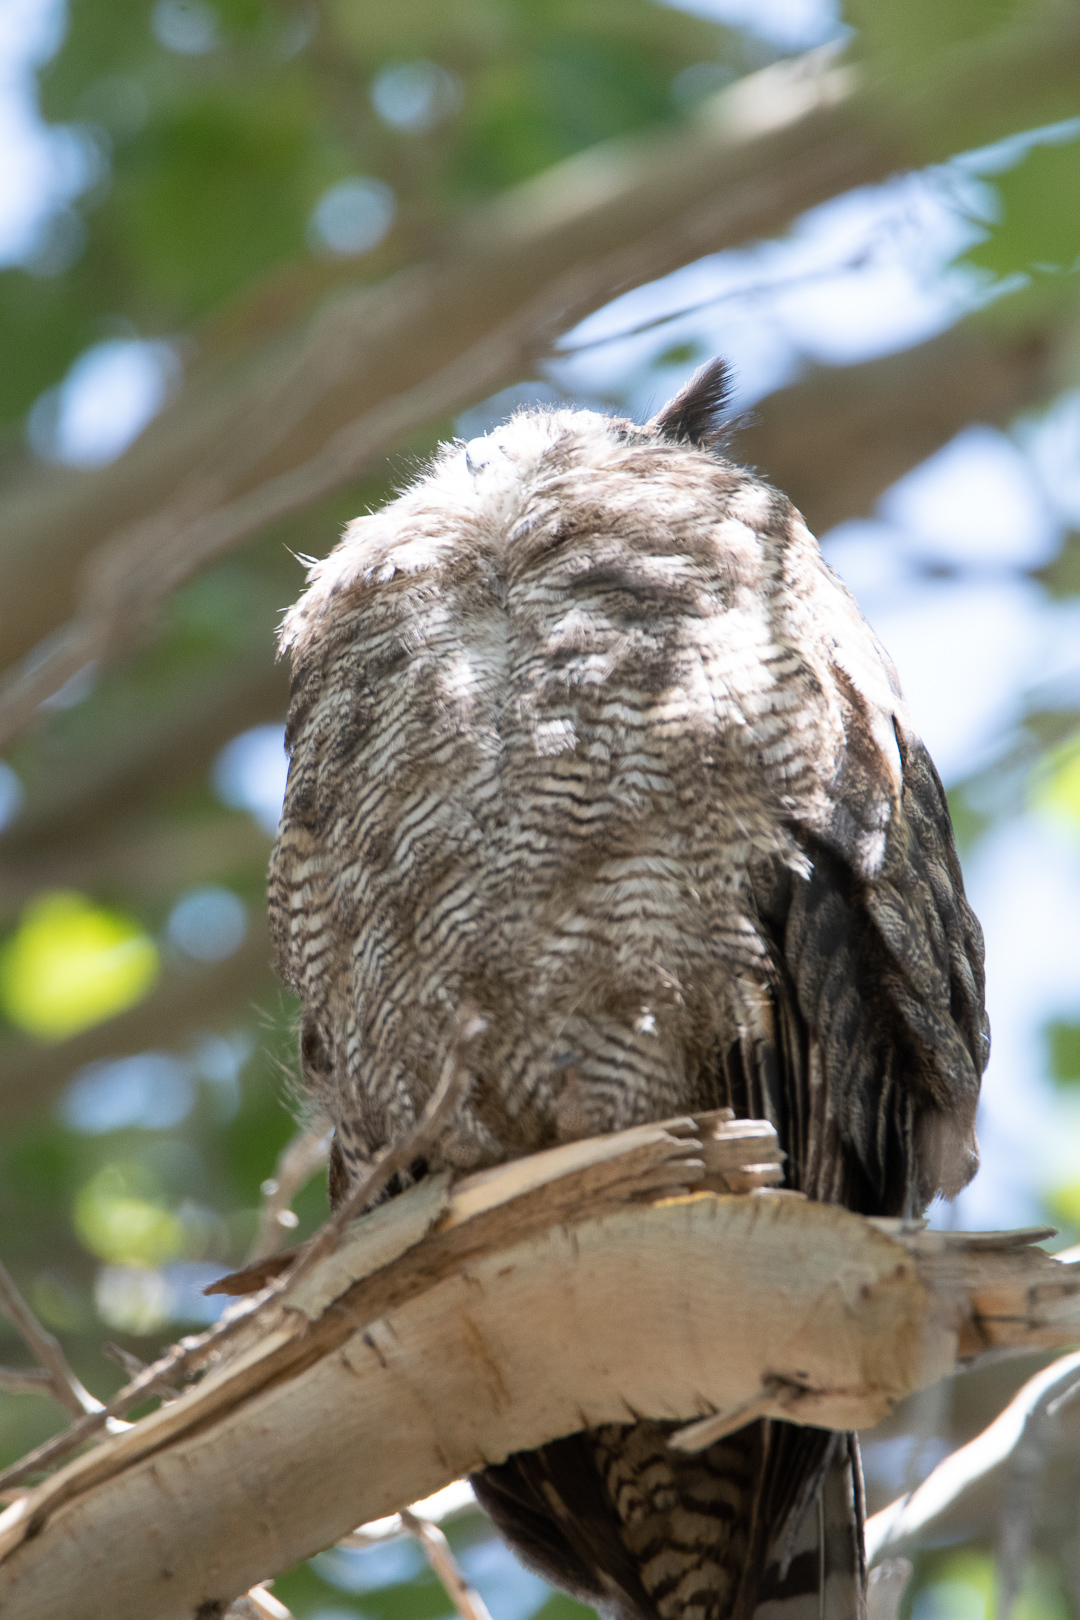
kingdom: Animalia
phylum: Chordata
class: Aves
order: Strigiformes
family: Strigidae
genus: Bubo
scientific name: Bubo magellanicus
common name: Lesser horned owl
